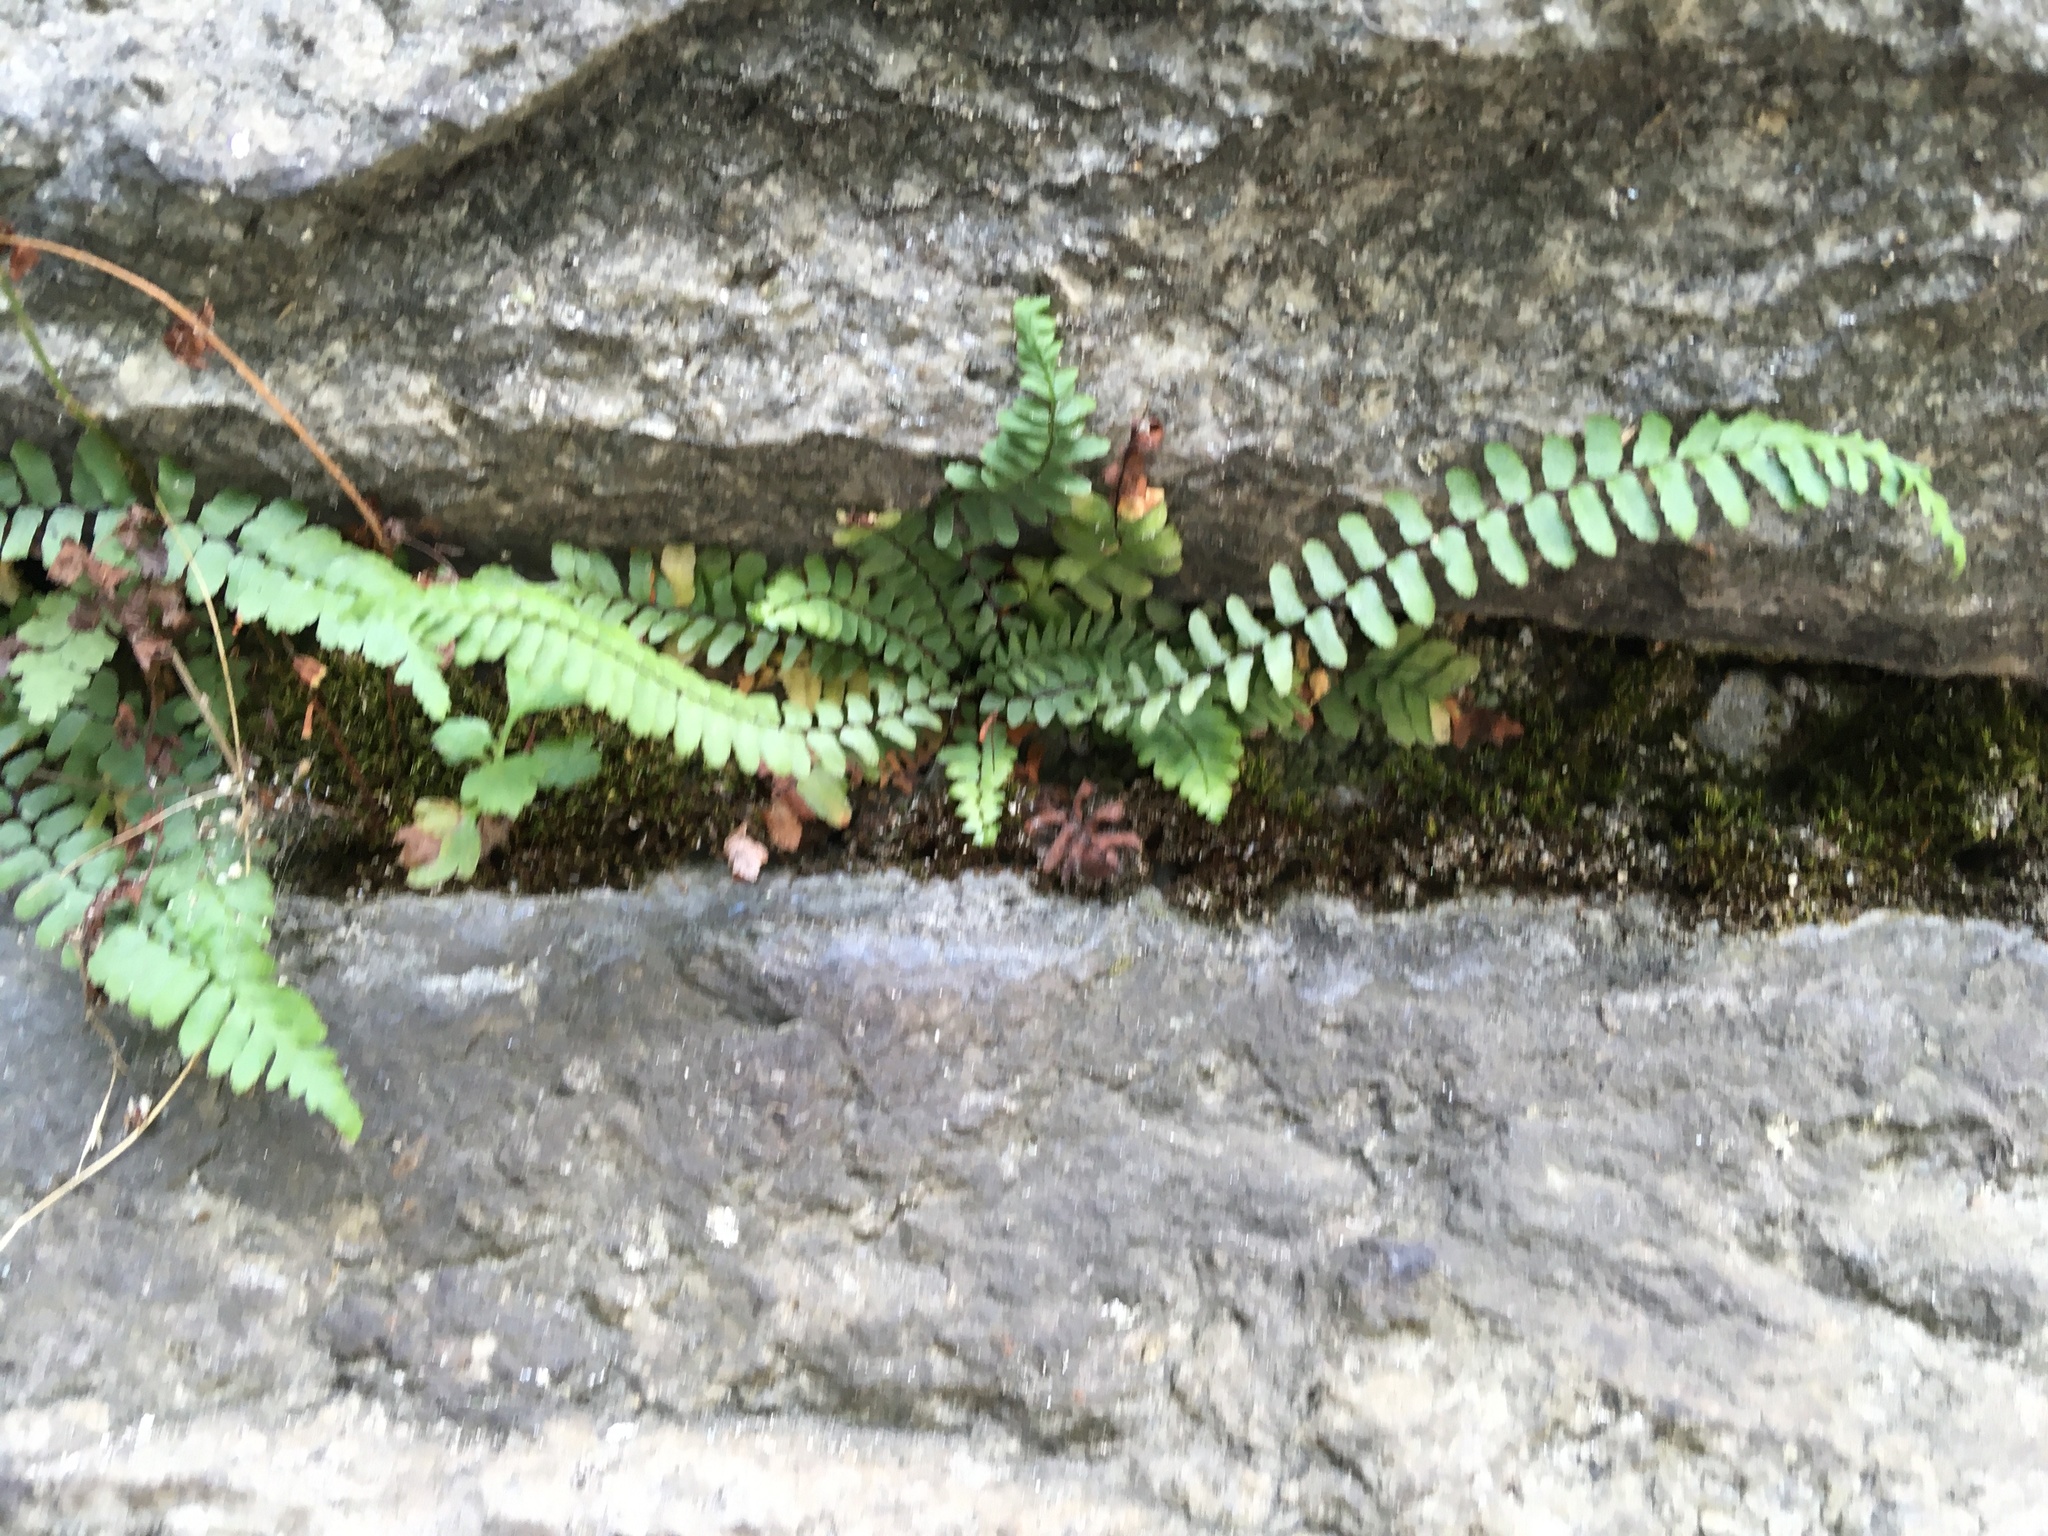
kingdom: Plantae
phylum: Tracheophyta
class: Polypodiopsida
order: Polypodiales
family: Aspleniaceae
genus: Asplenium
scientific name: Asplenium platyneuron
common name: Ebony spleenwort
